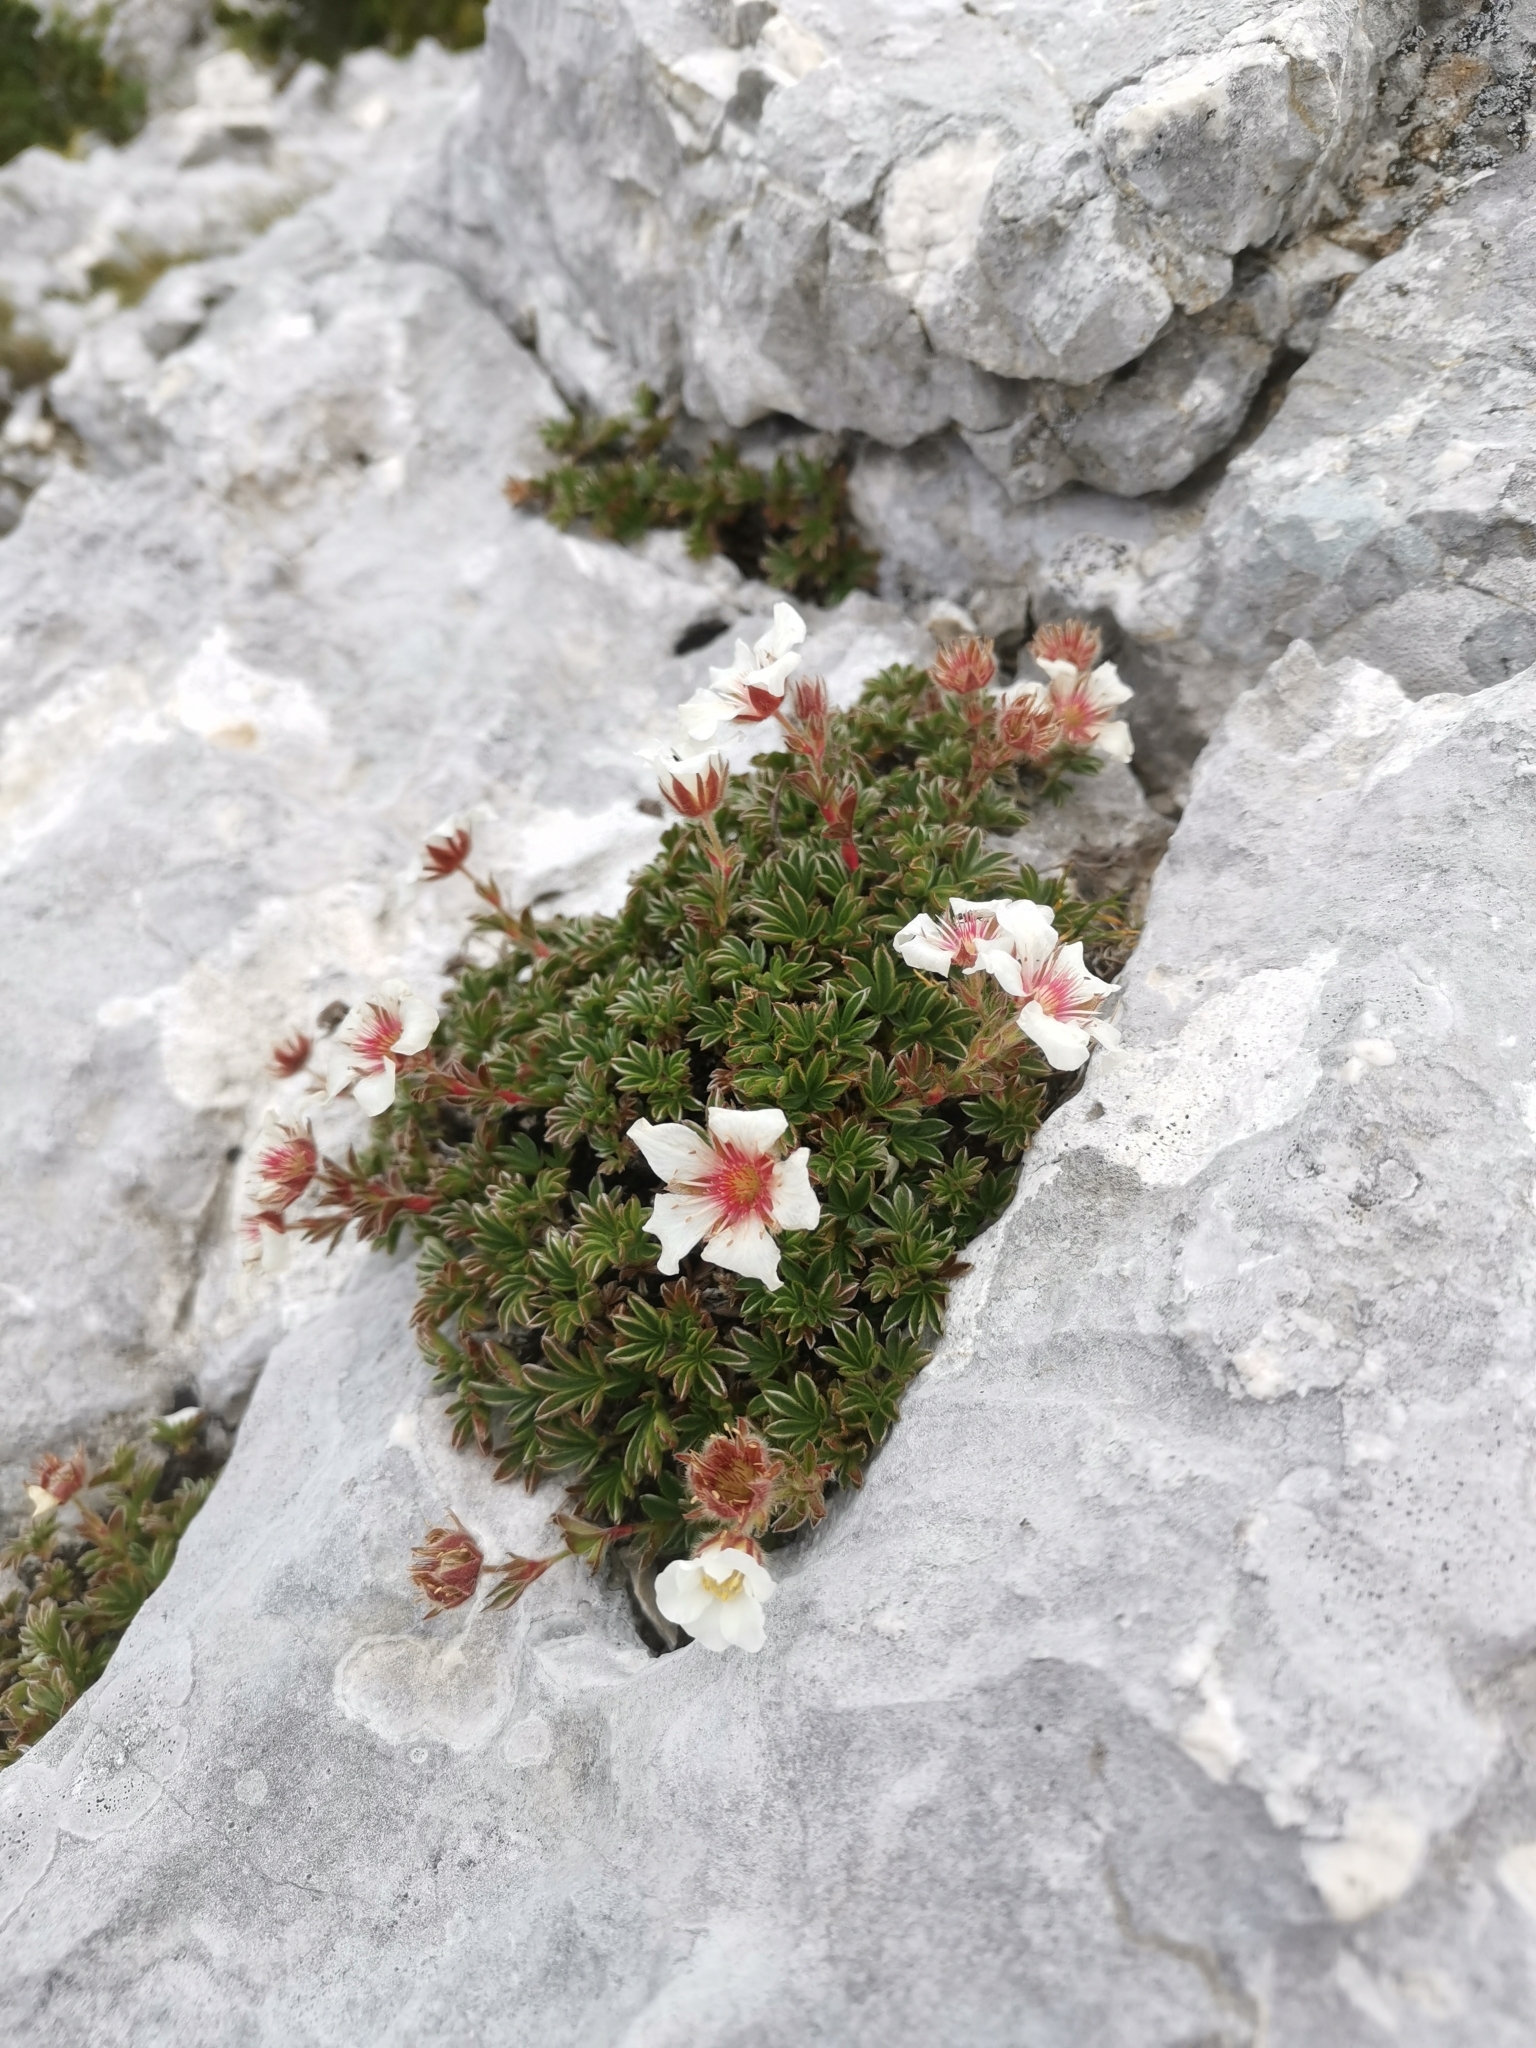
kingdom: Plantae
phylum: Tracheophyta
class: Magnoliopsida
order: Rosales
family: Rosaceae
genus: Potentilla
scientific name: Potentilla clusiana
